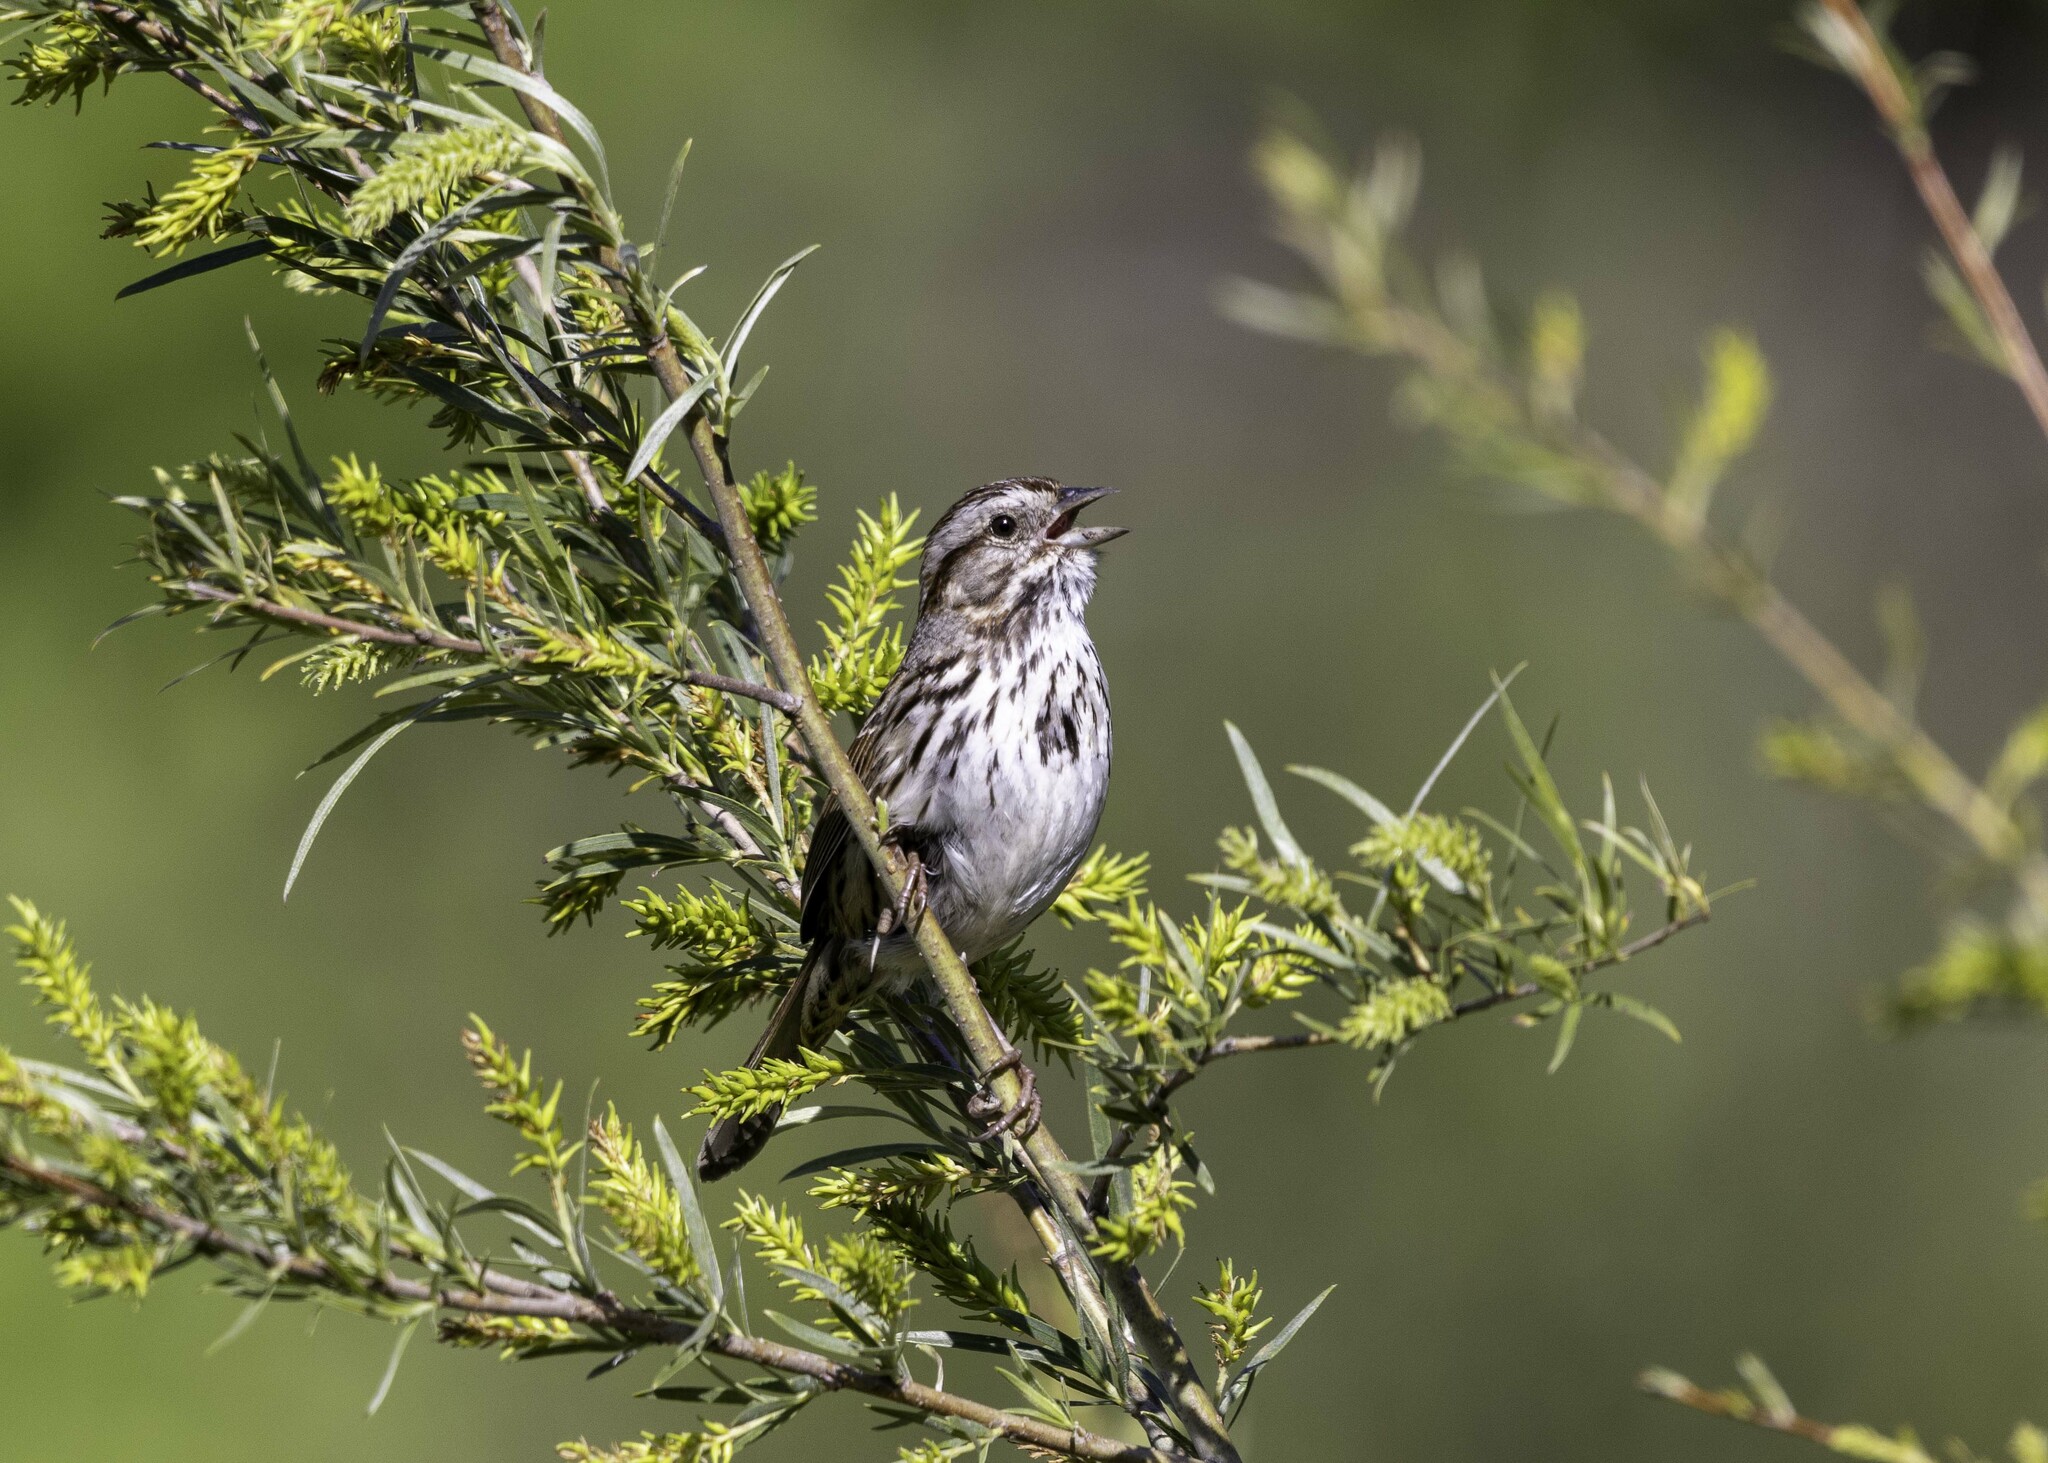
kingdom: Animalia
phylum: Chordata
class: Aves
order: Passeriformes
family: Passerellidae
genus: Melospiza
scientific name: Melospiza melodia
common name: Song sparrow
